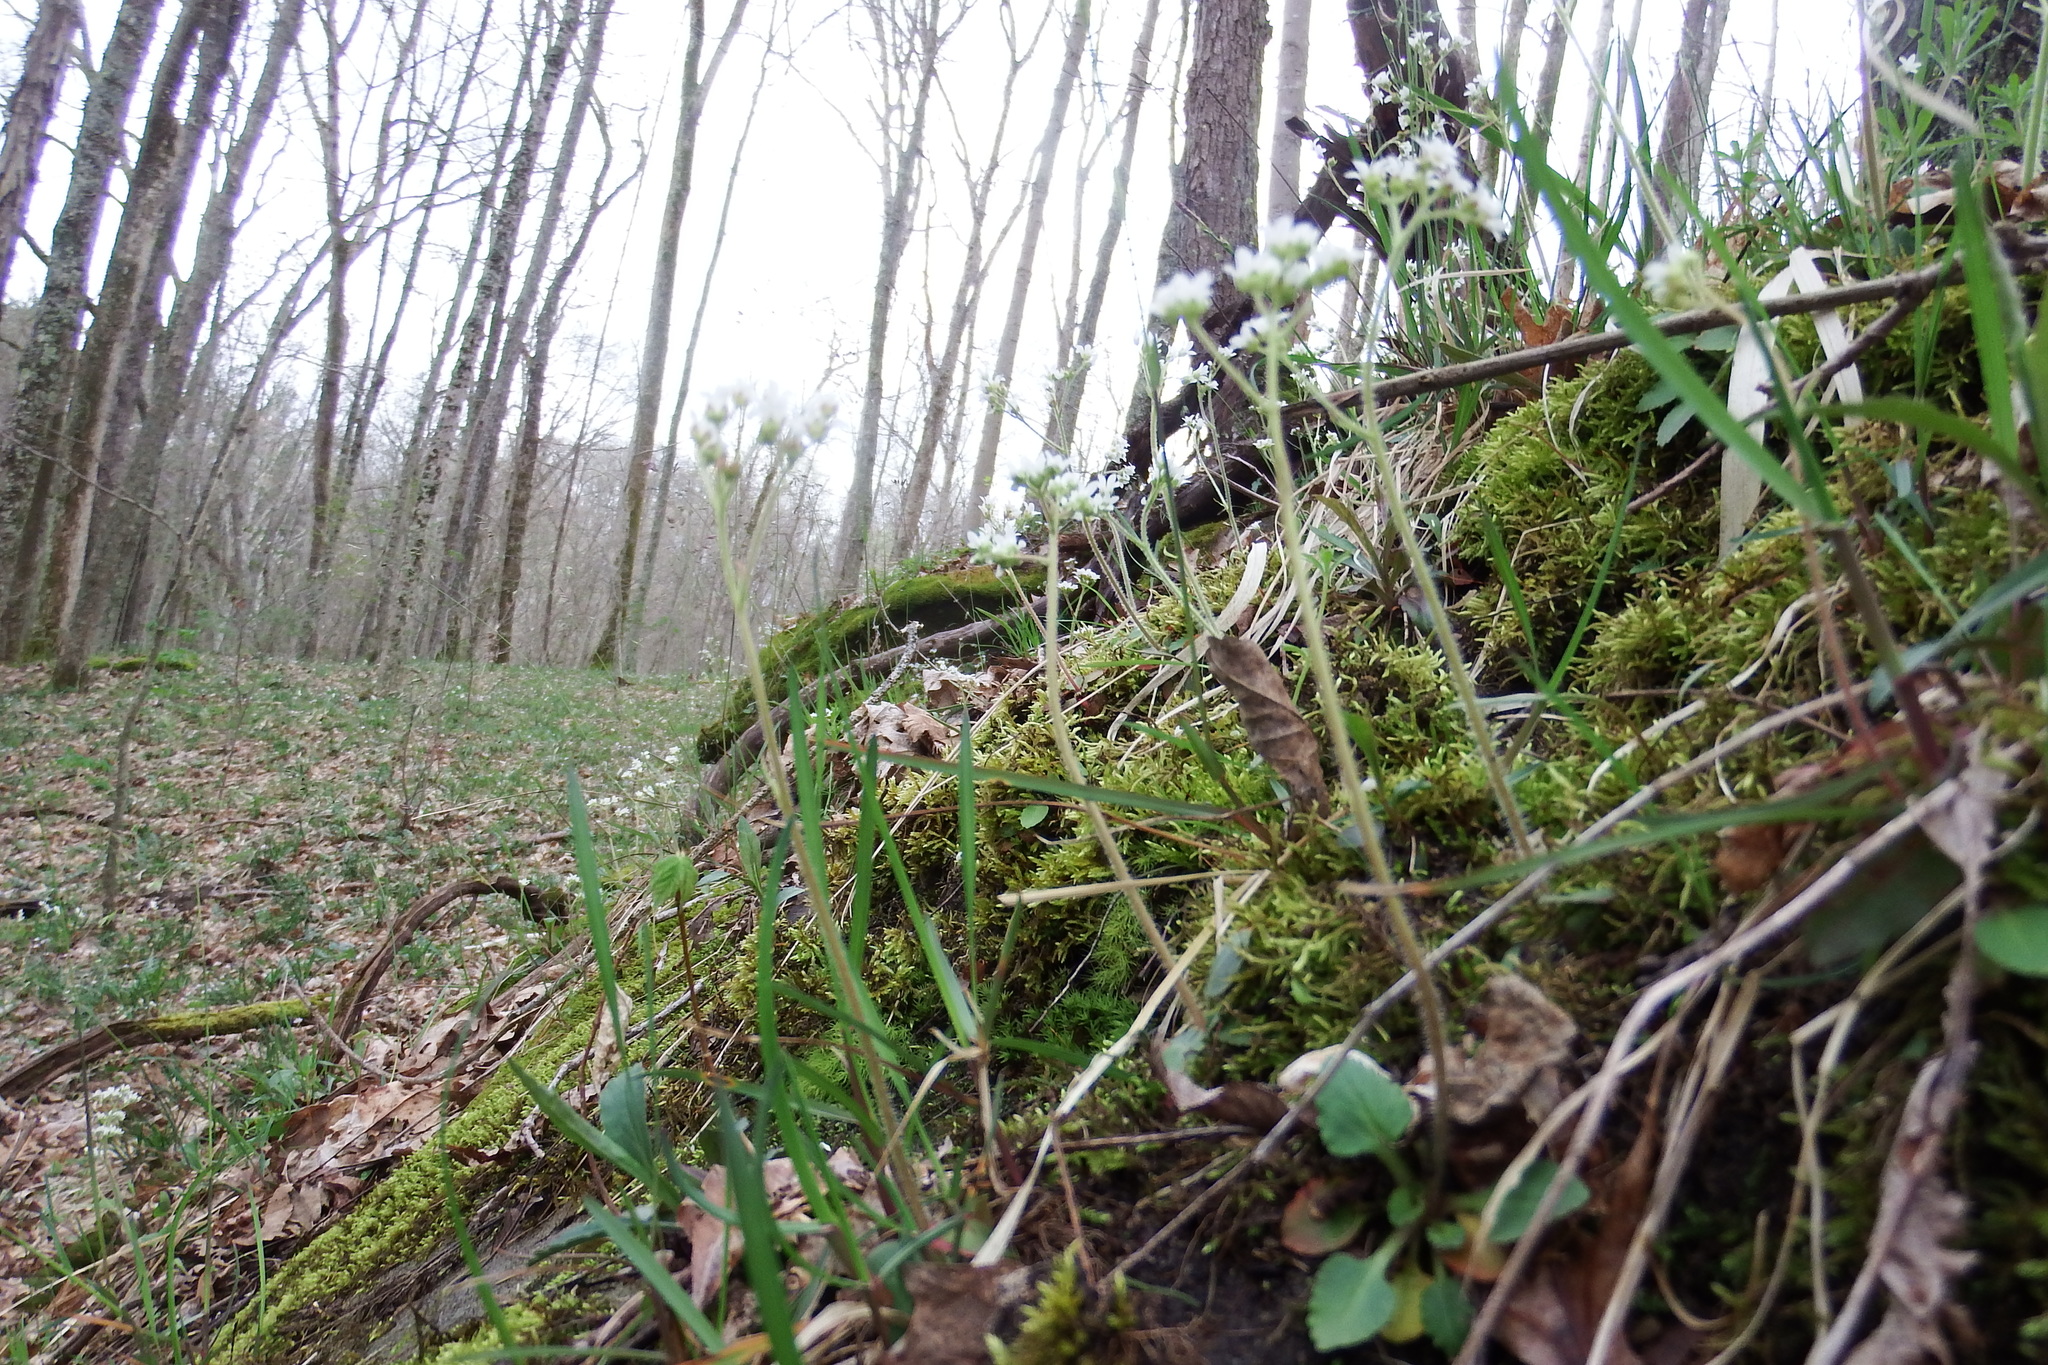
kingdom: Plantae
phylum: Tracheophyta
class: Magnoliopsida
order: Saxifragales
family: Saxifragaceae
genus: Micranthes
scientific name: Micranthes virginiensis
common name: Early saxifrage
